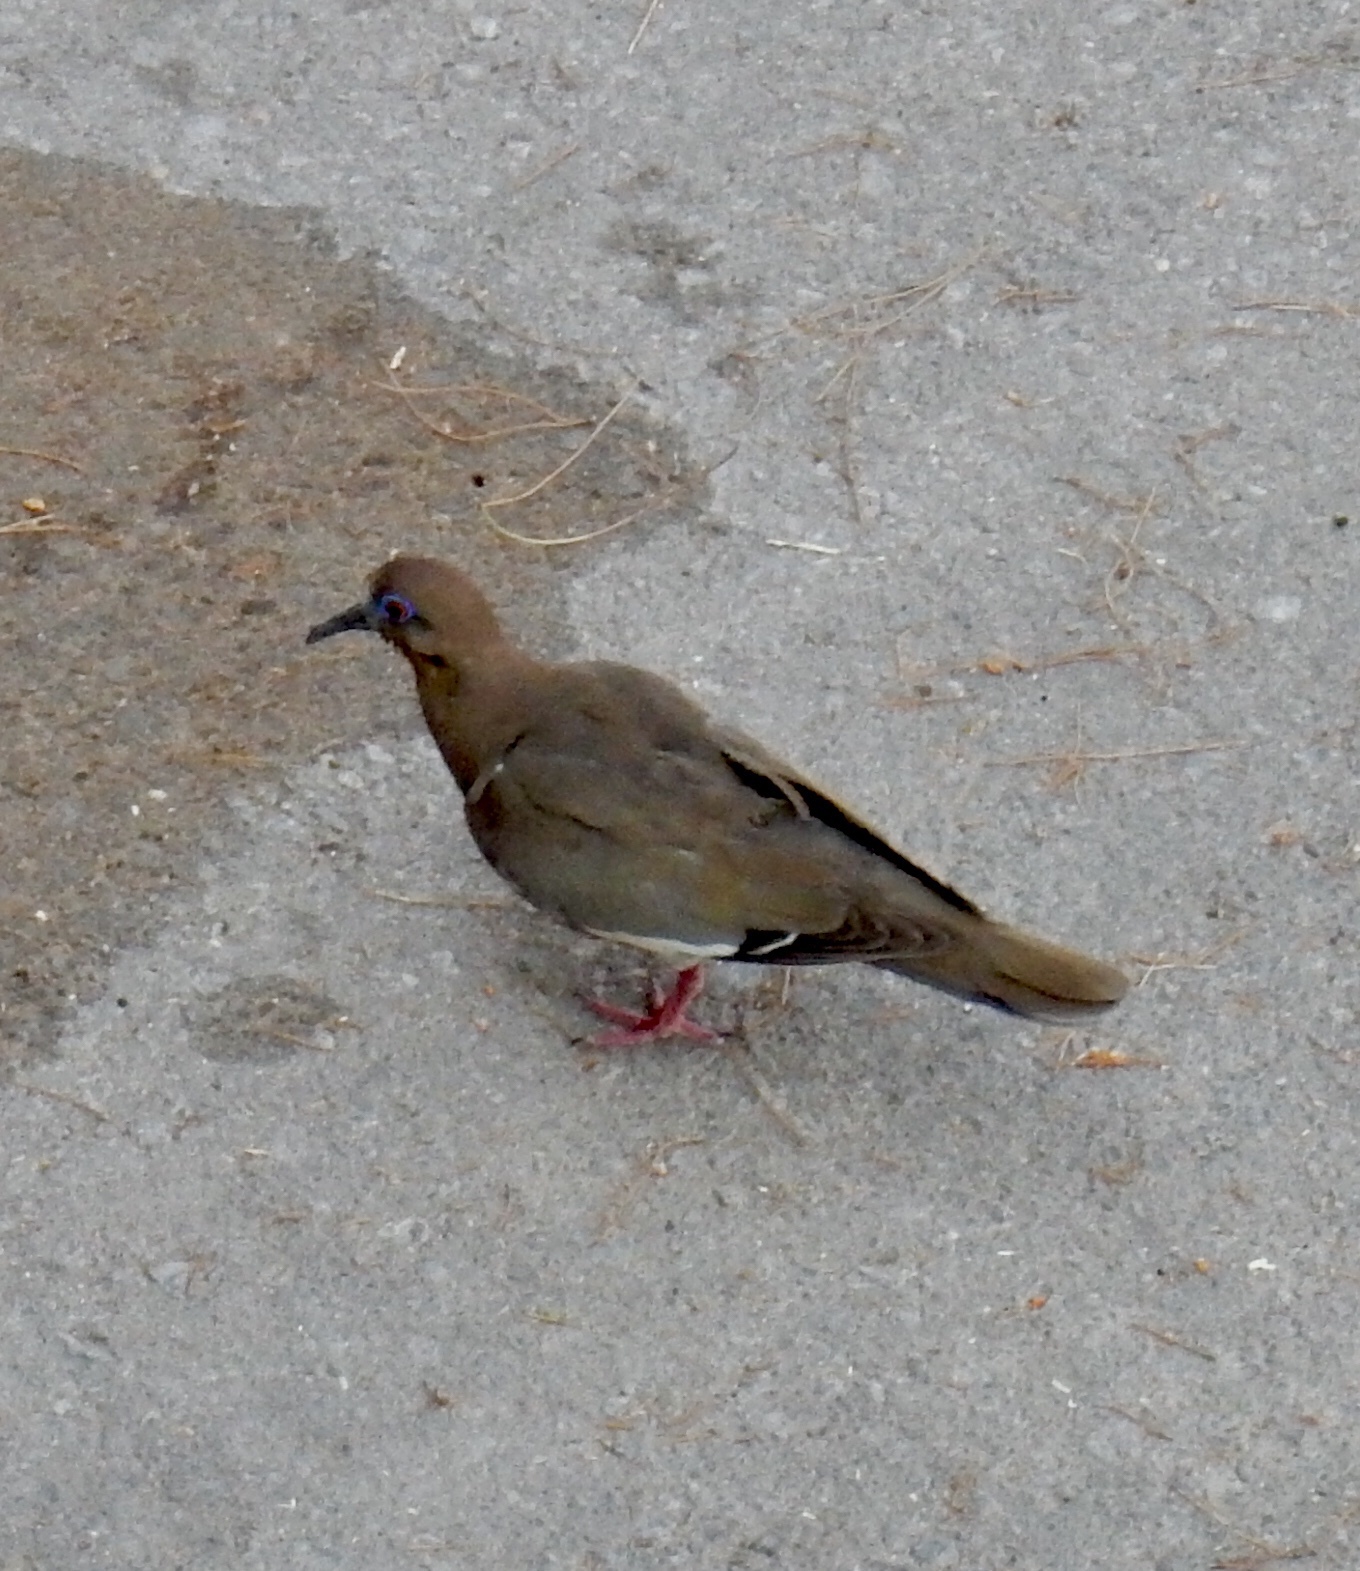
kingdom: Animalia
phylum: Chordata
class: Aves
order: Columbiformes
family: Columbidae
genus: Zenaida
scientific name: Zenaida asiatica
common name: White-winged dove
